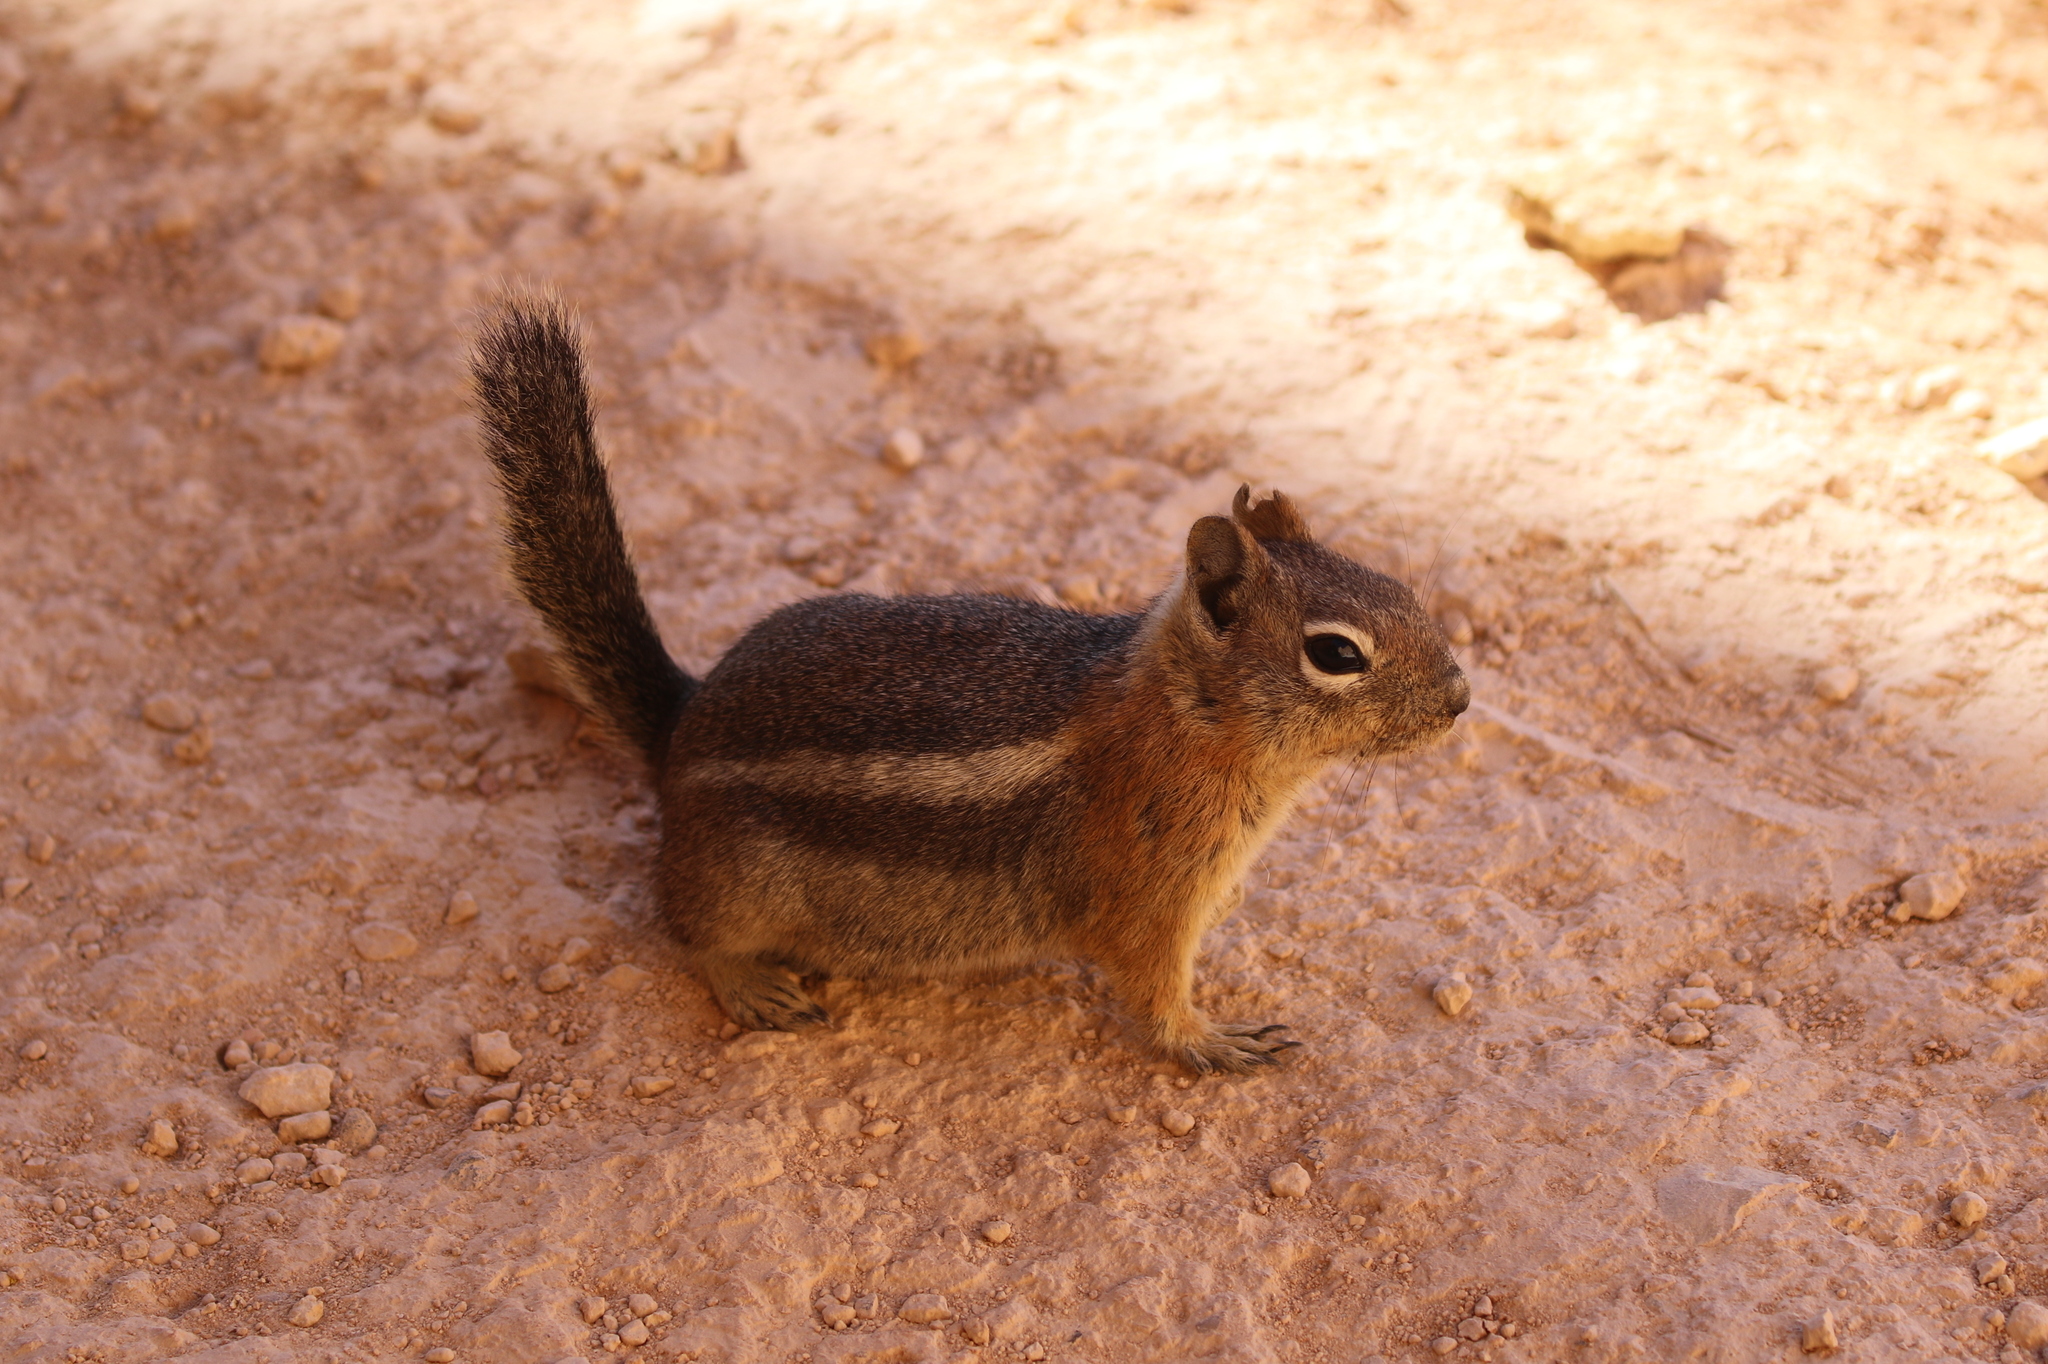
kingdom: Animalia
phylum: Chordata
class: Mammalia
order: Rodentia
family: Sciuridae
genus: Callospermophilus
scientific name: Callospermophilus lateralis
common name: Golden-mantled ground squirrel
